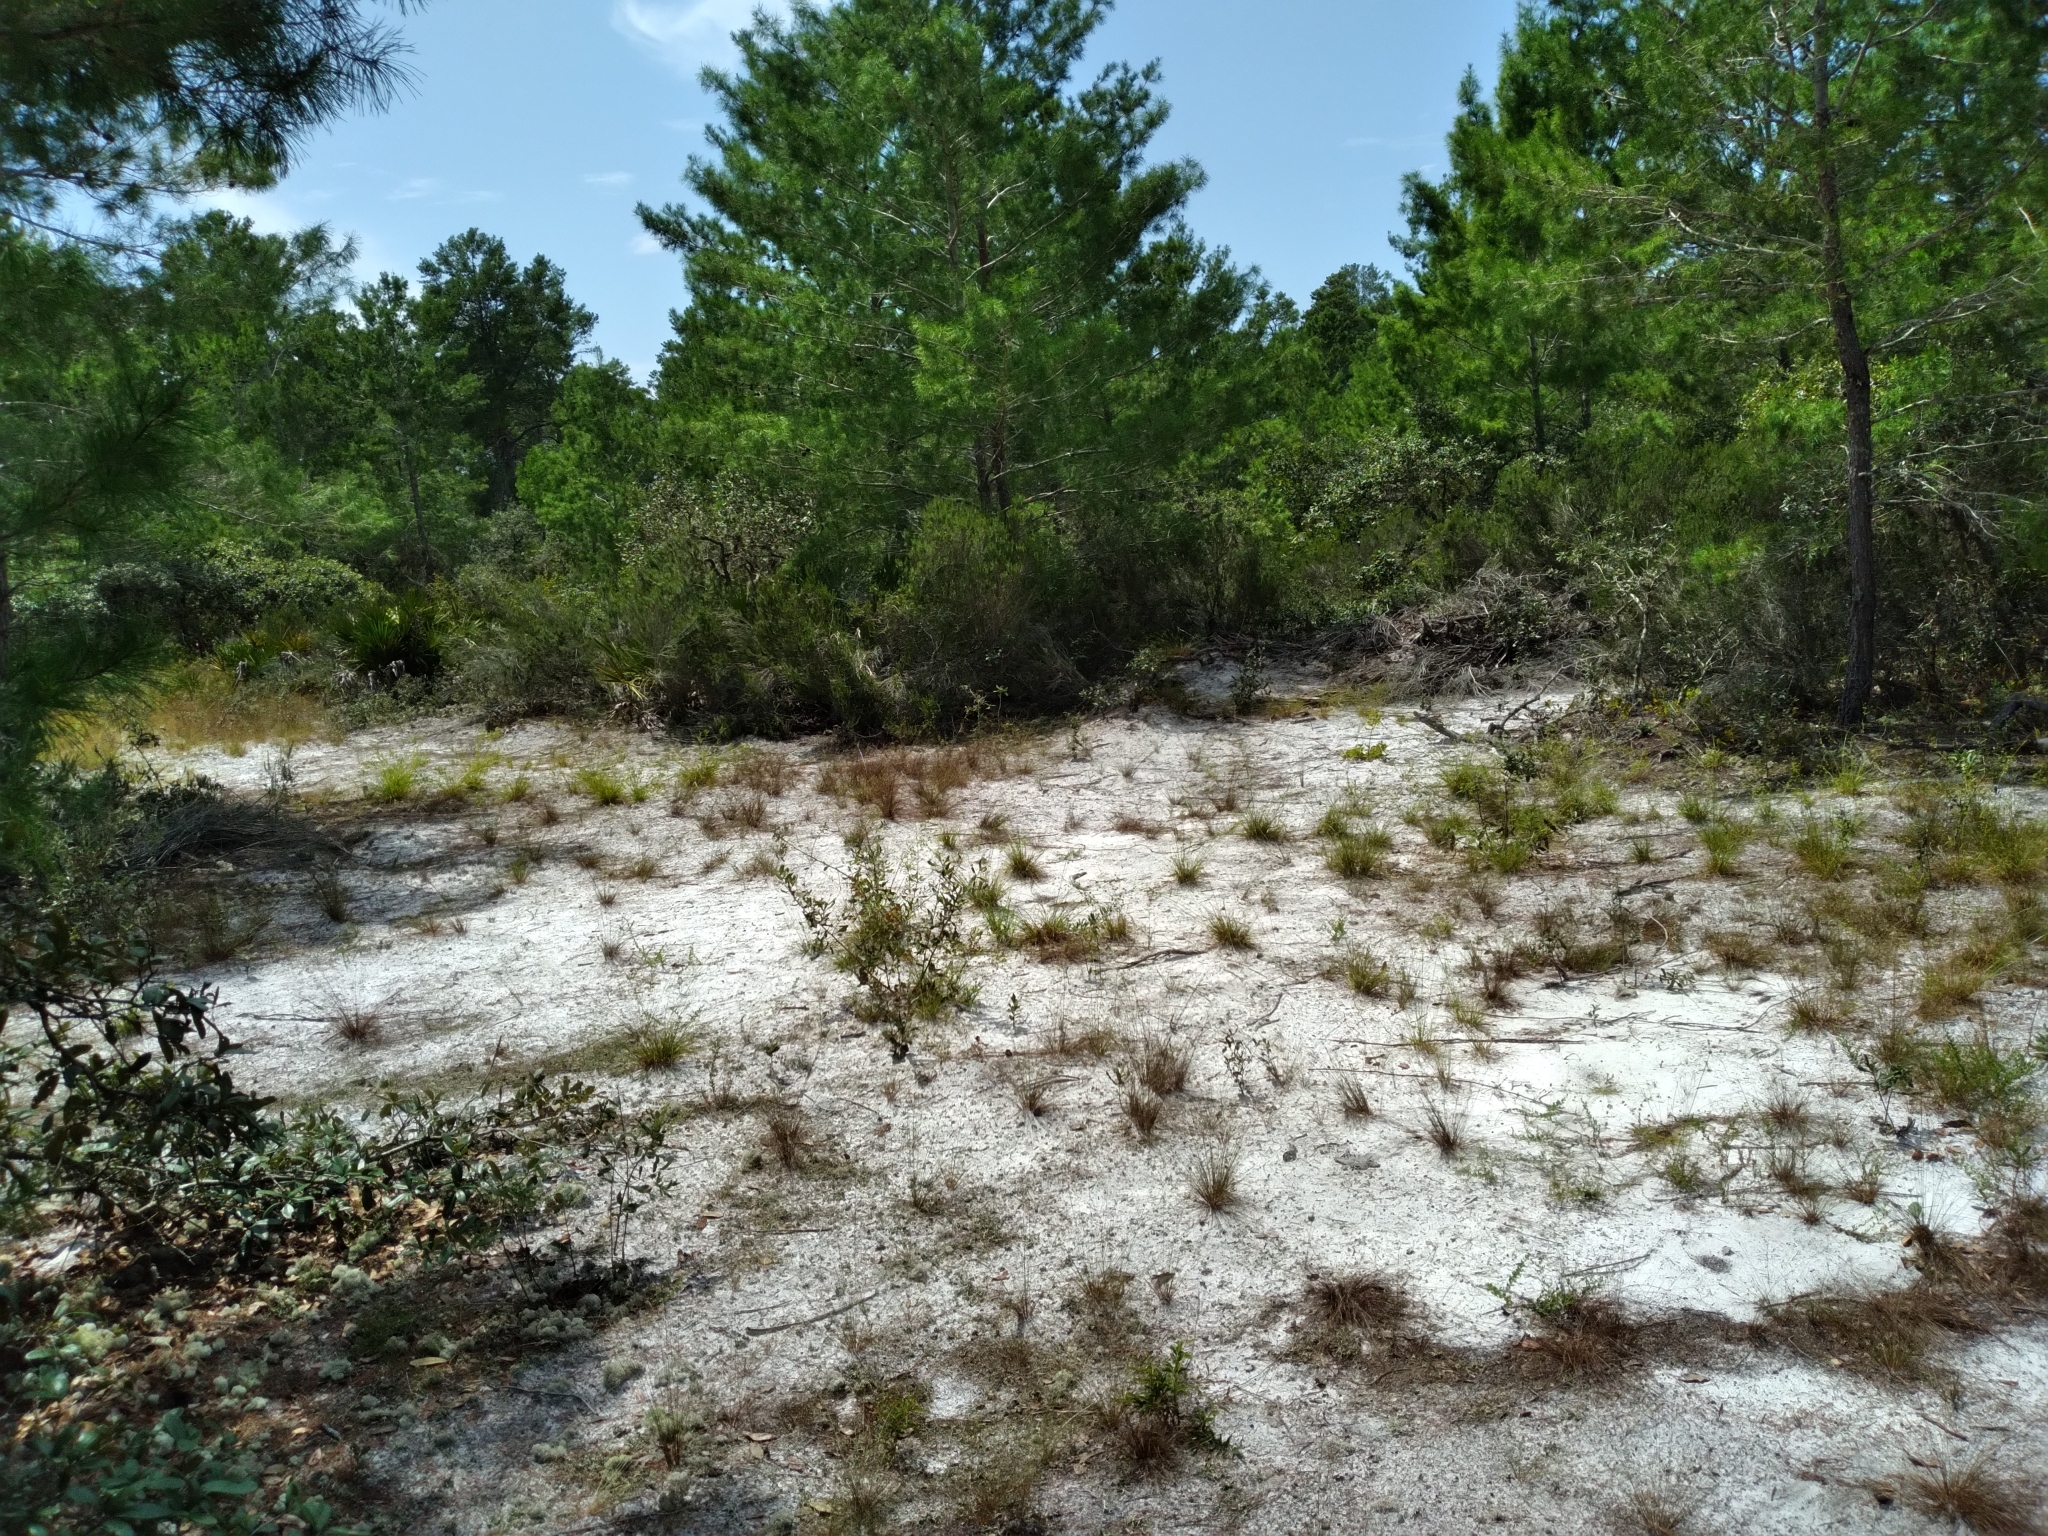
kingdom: Plantae
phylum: Tracheophyta
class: Liliopsida
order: Poales
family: Cyperaceae
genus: Bulbostylis
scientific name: Bulbostylis barbata
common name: Watergrass
